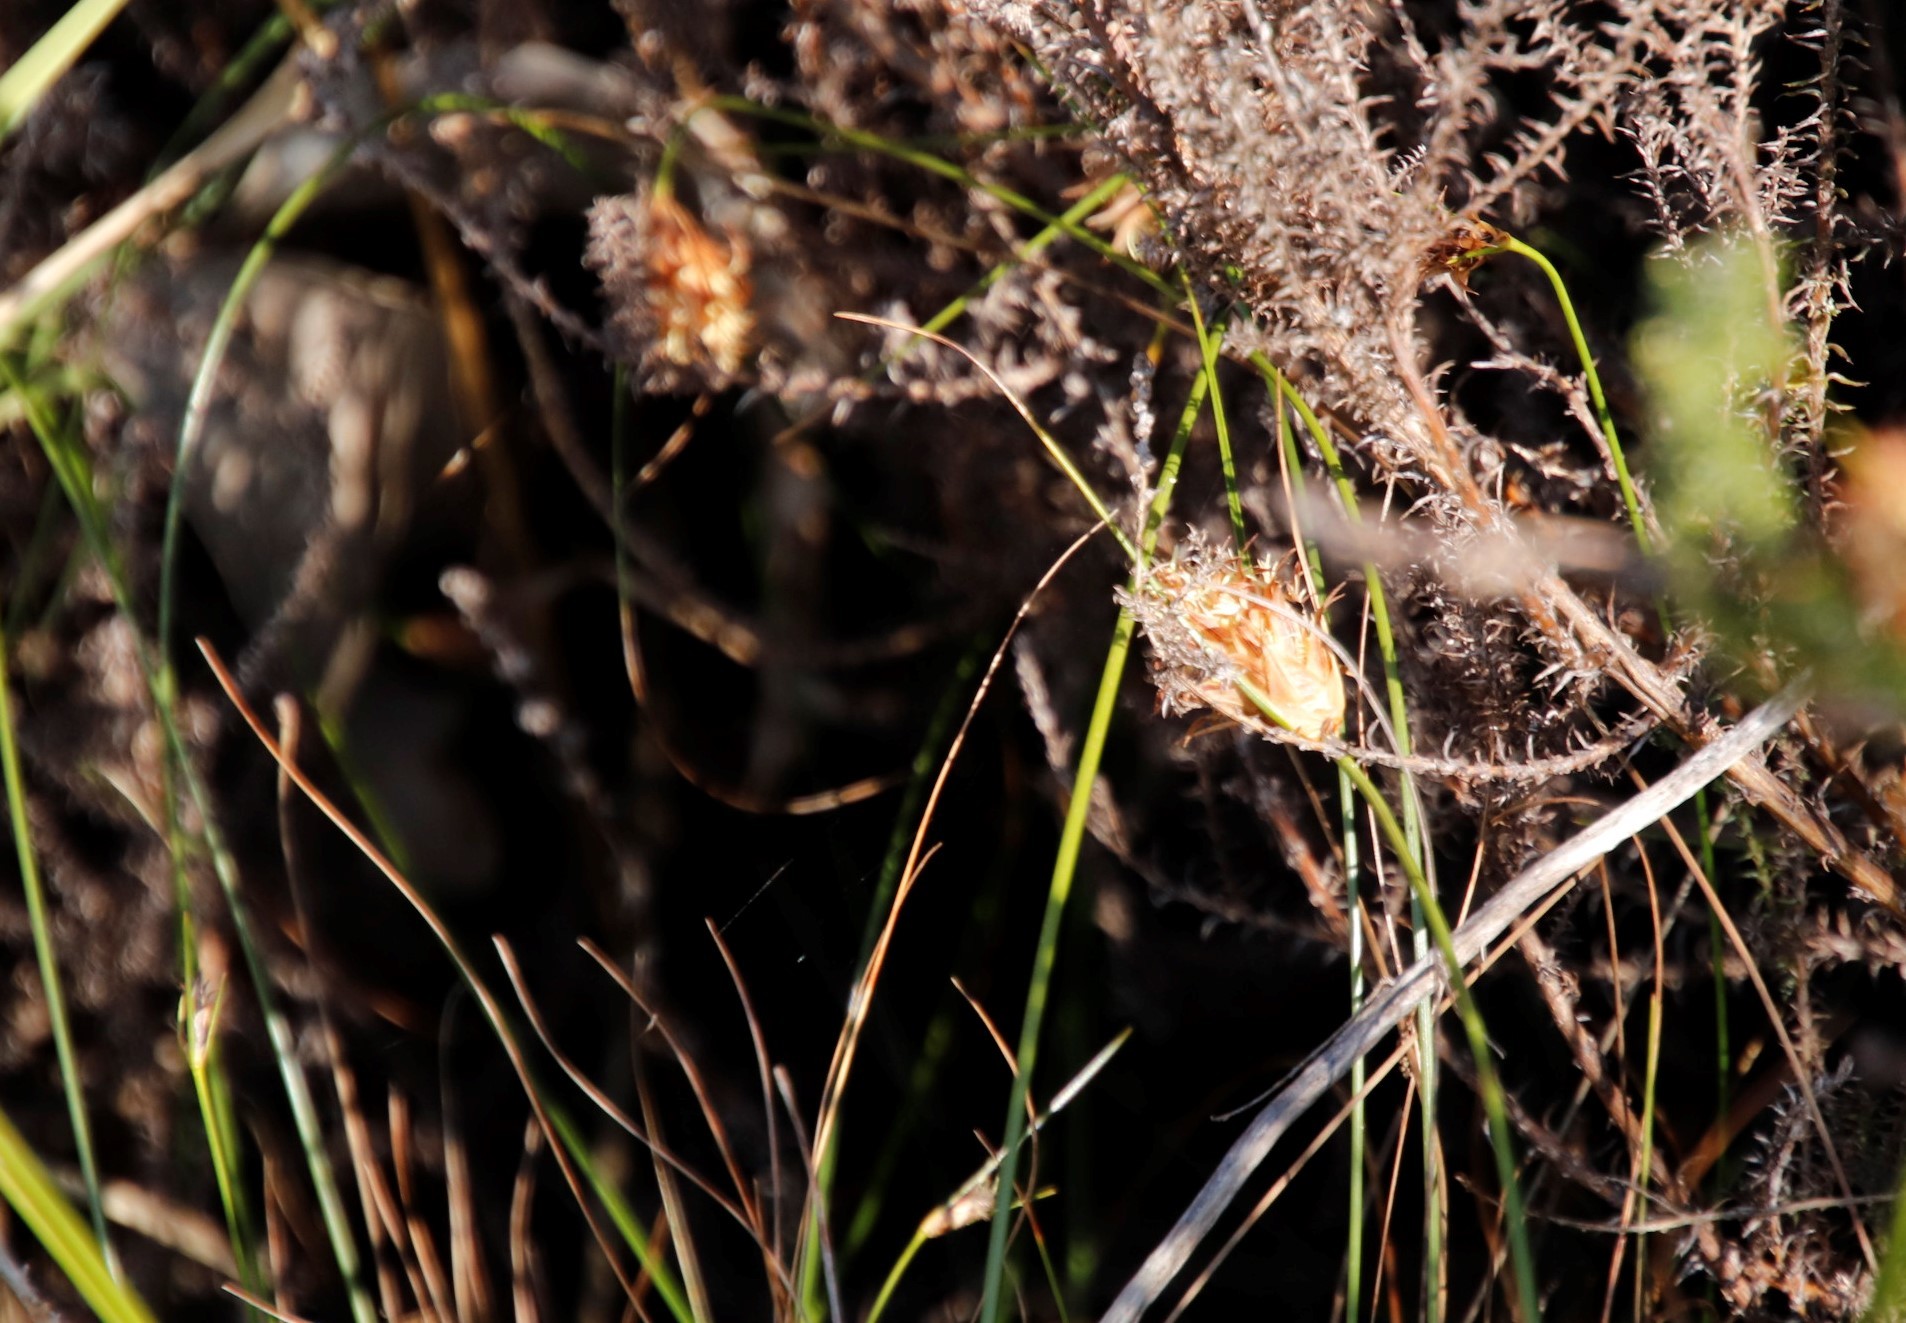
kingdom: Plantae
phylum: Tracheophyta
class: Liliopsida
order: Poales
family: Cyperaceae
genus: Ficinia
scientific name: Ficinia nigrescens
